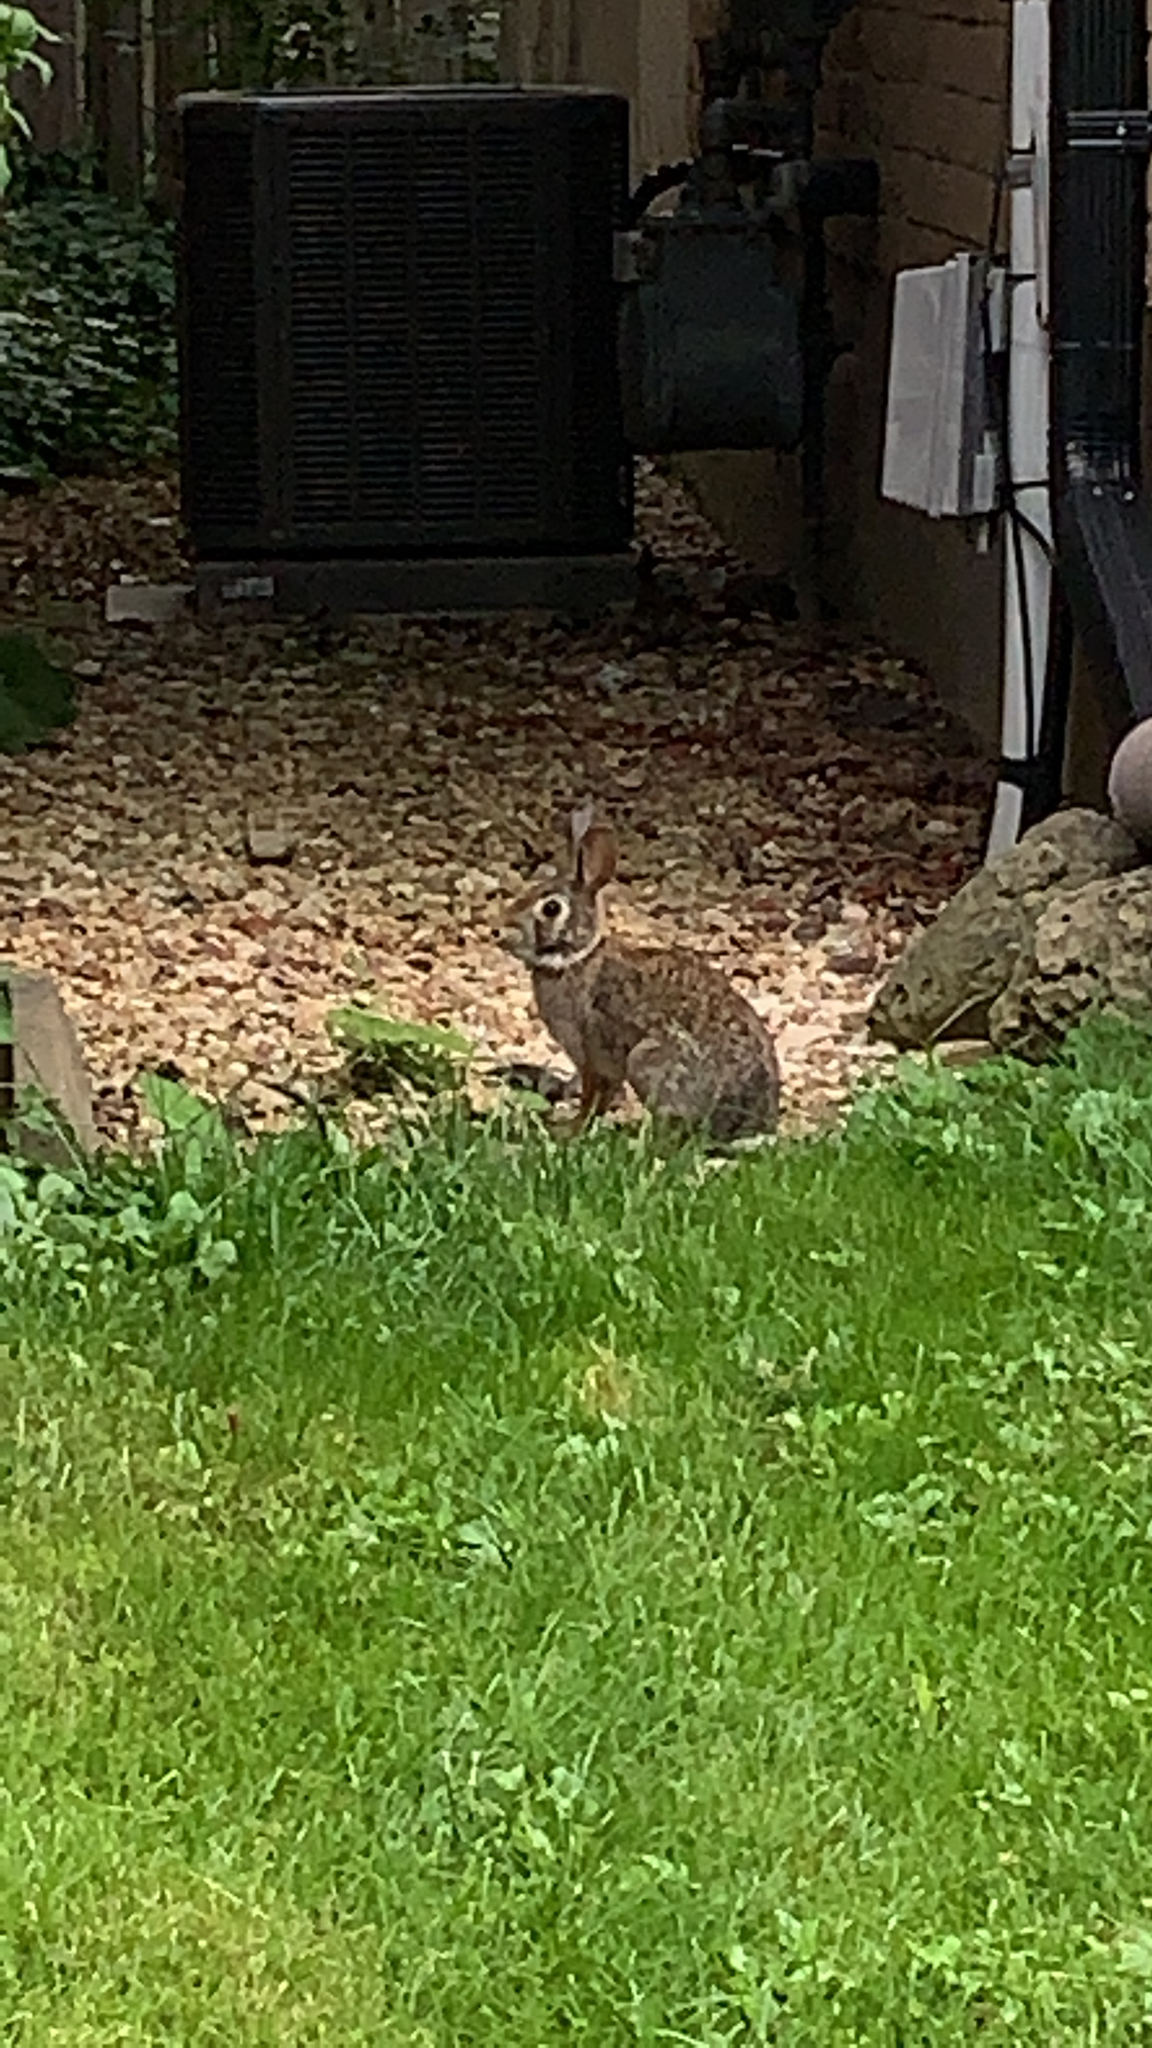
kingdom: Animalia
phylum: Chordata
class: Mammalia
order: Lagomorpha
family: Leporidae
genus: Sylvilagus
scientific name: Sylvilagus floridanus
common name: Eastern cottontail
